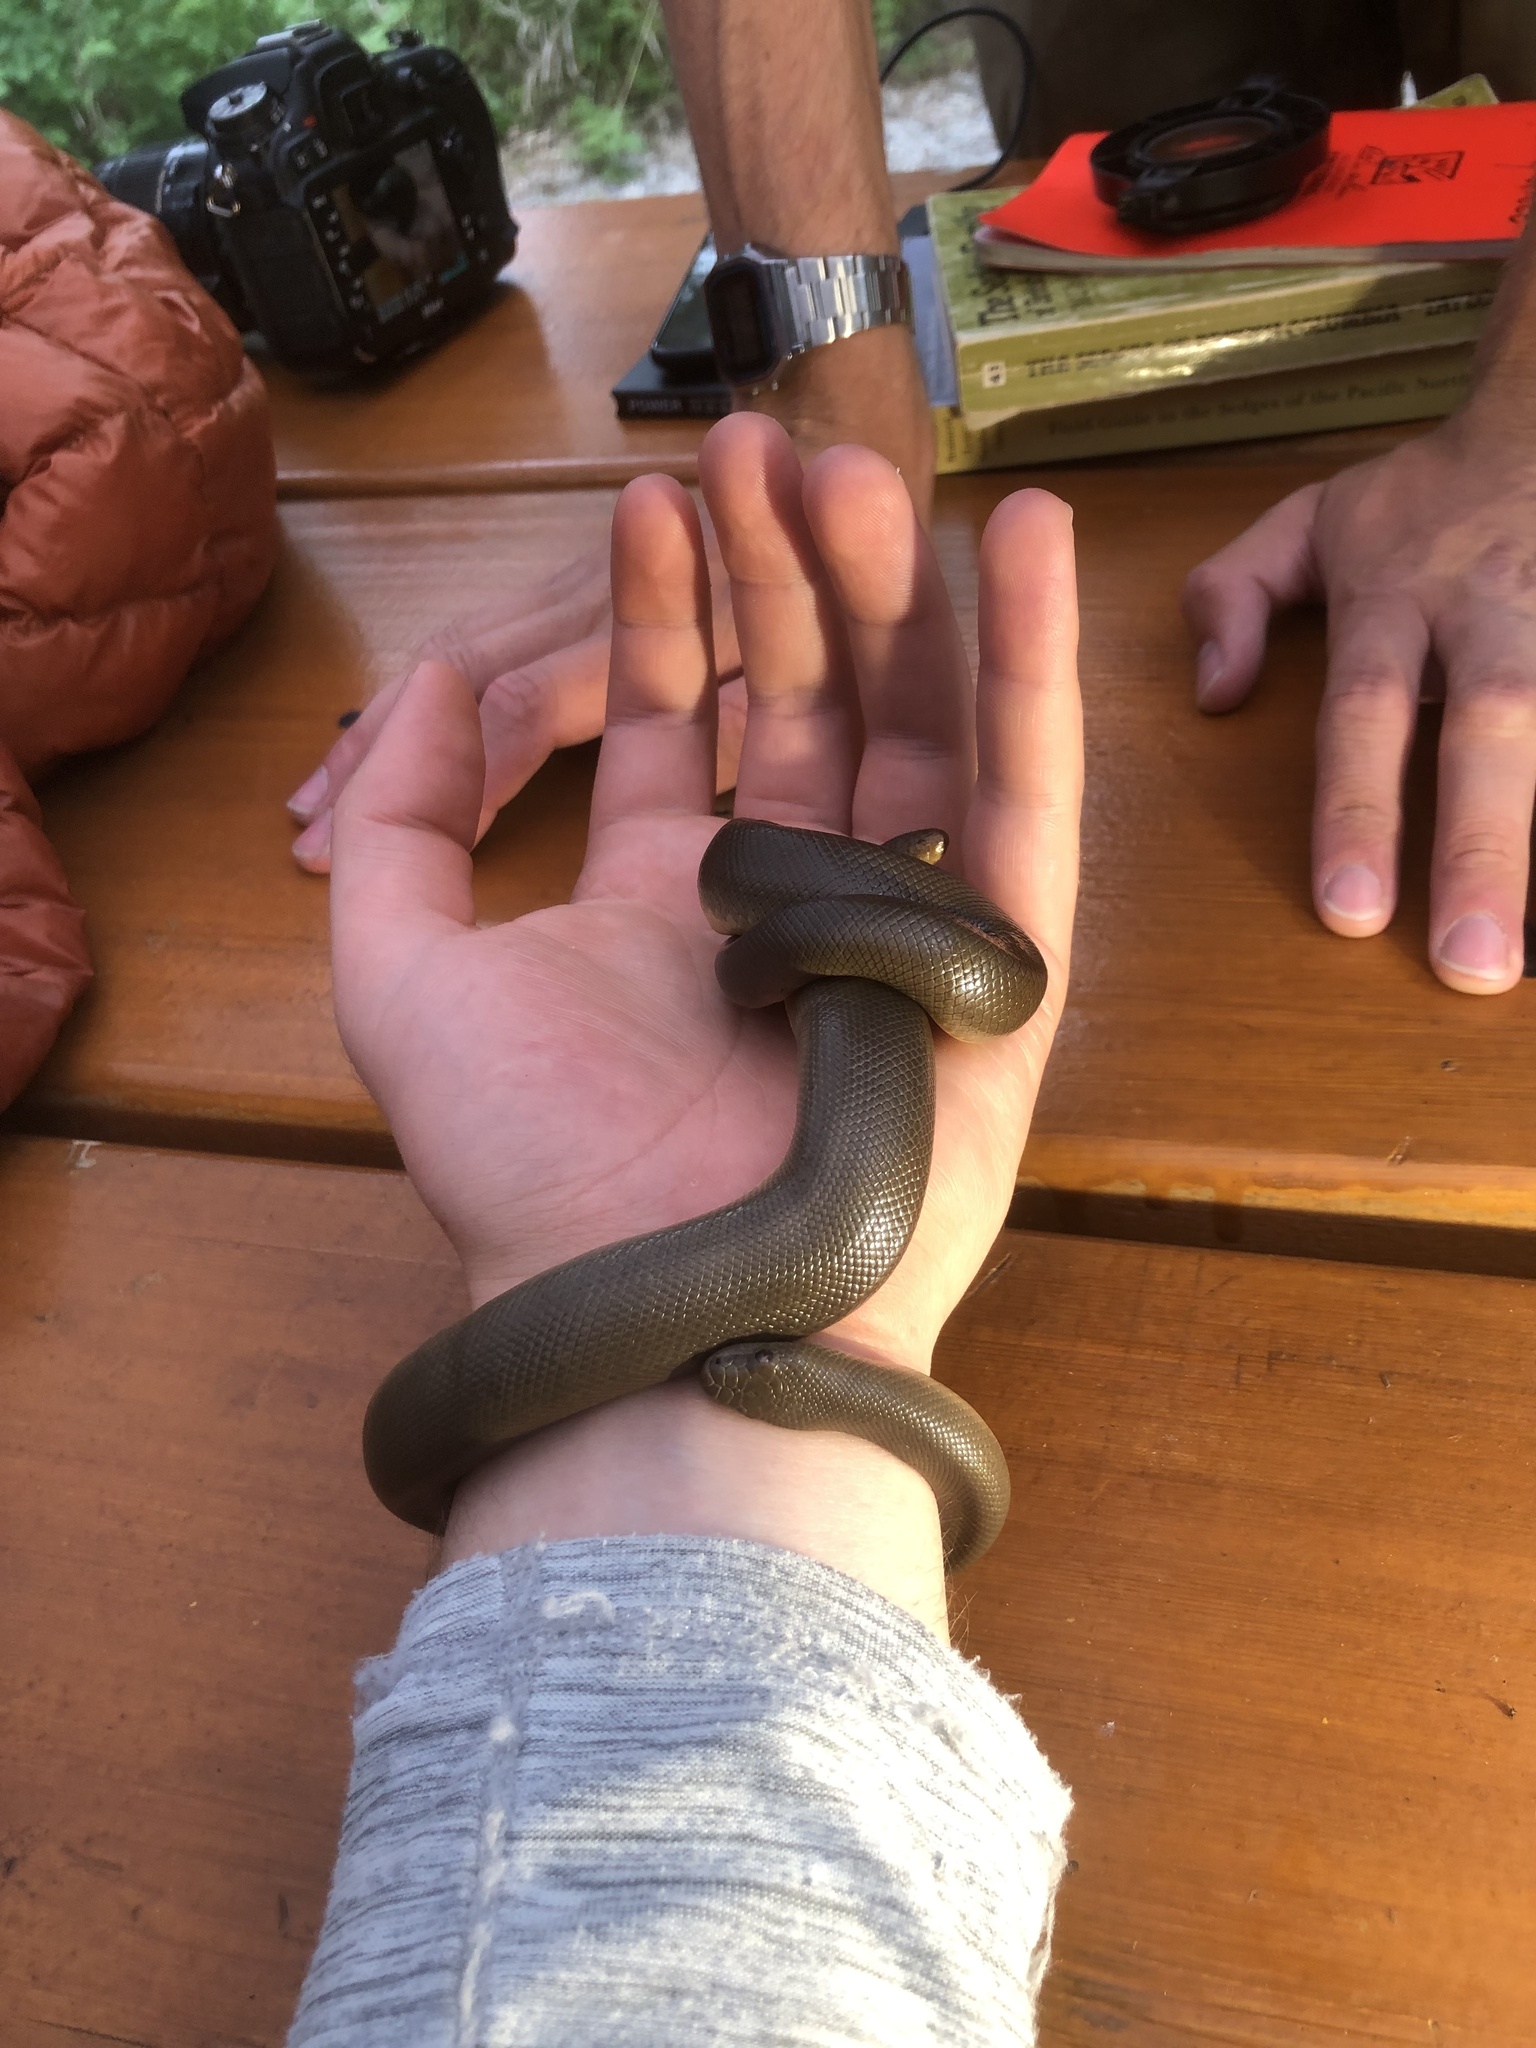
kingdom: Animalia
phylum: Chordata
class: Squamata
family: Boidae
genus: Charina
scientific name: Charina bottae
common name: Northern rubber boa
